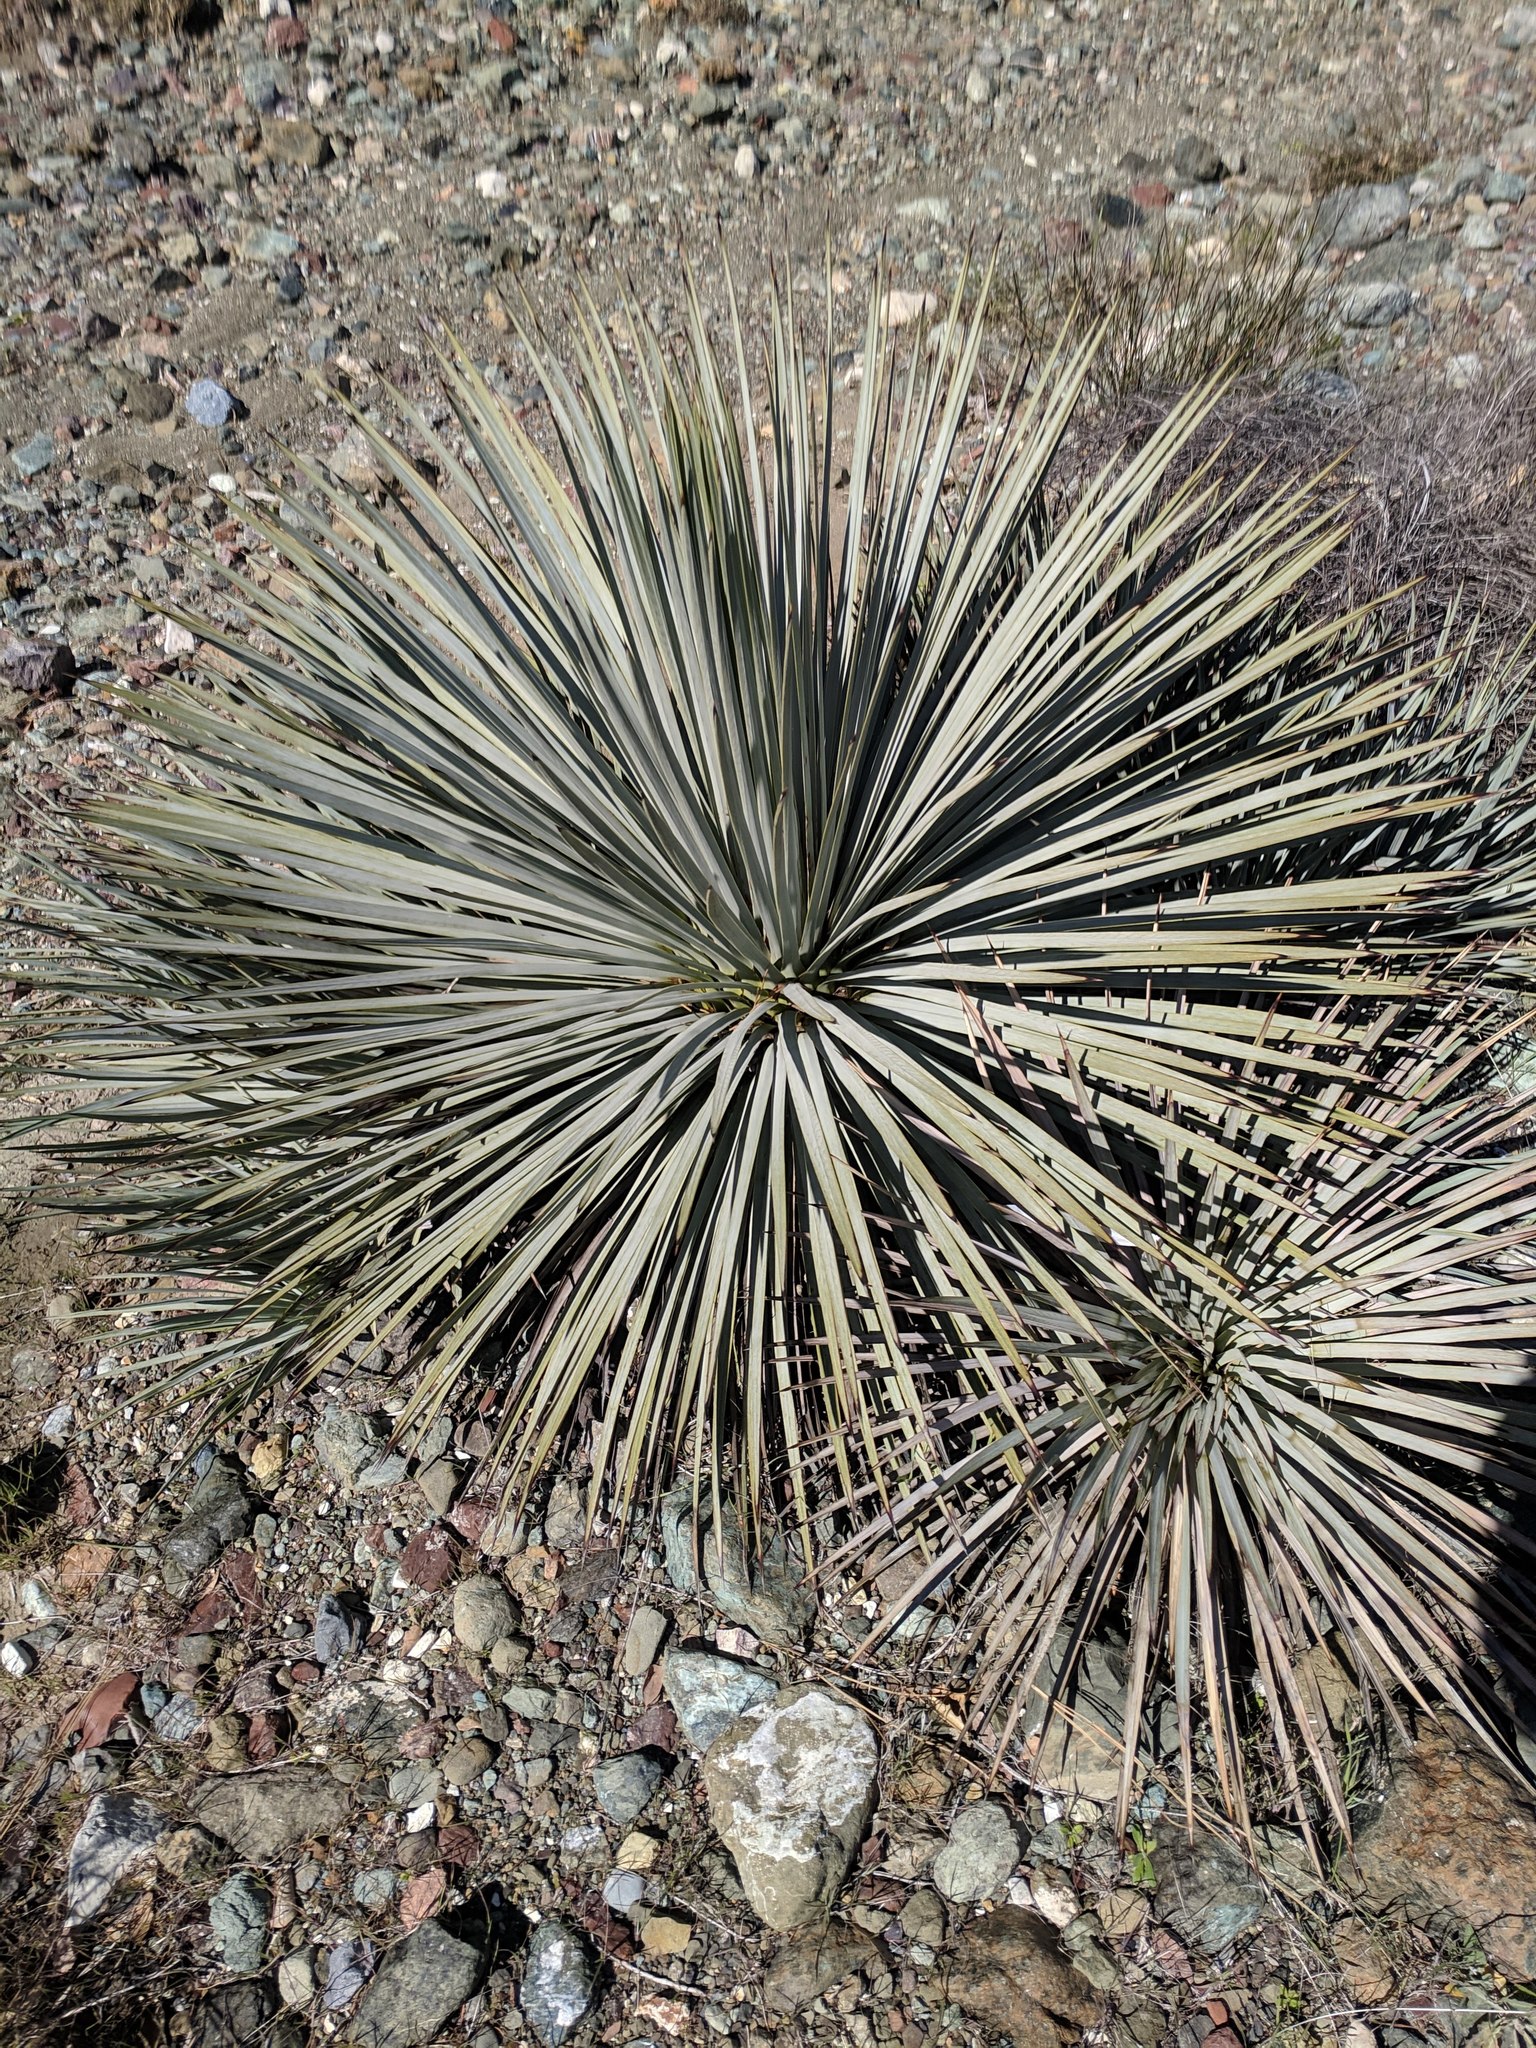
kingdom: Plantae
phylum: Tracheophyta
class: Liliopsida
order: Asparagales
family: Asparagaceae
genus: Hesperoyucca
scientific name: Hesperoyucca whipplei
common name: Our lord's-candle
